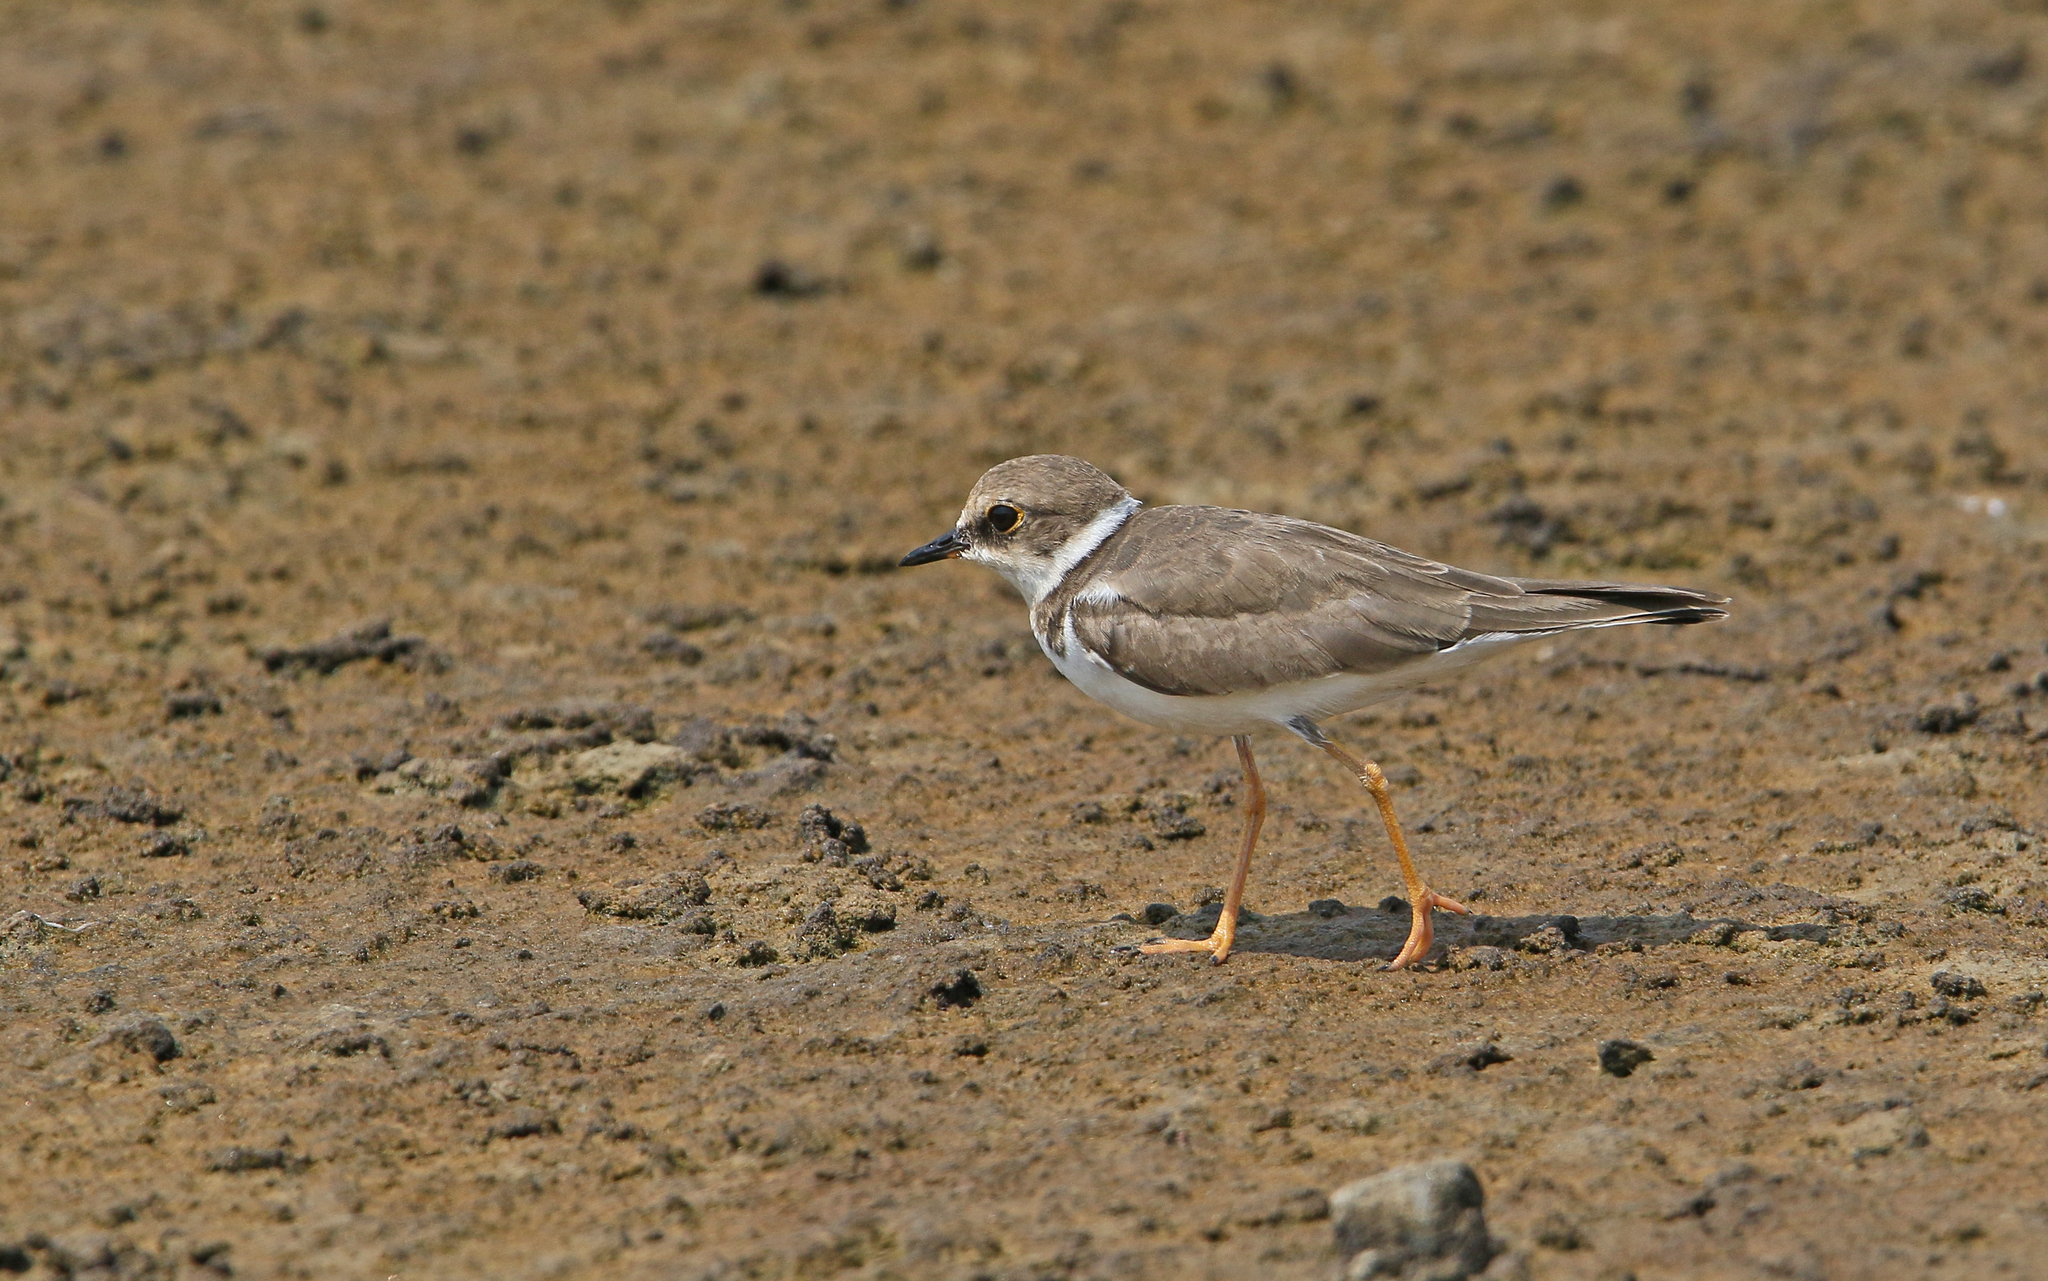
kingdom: Animalia
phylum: Chordata
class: Aves
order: Charadriiformes
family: Charadriidae
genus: Charadrius
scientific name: Charadrius dubius
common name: Little ringed plover
